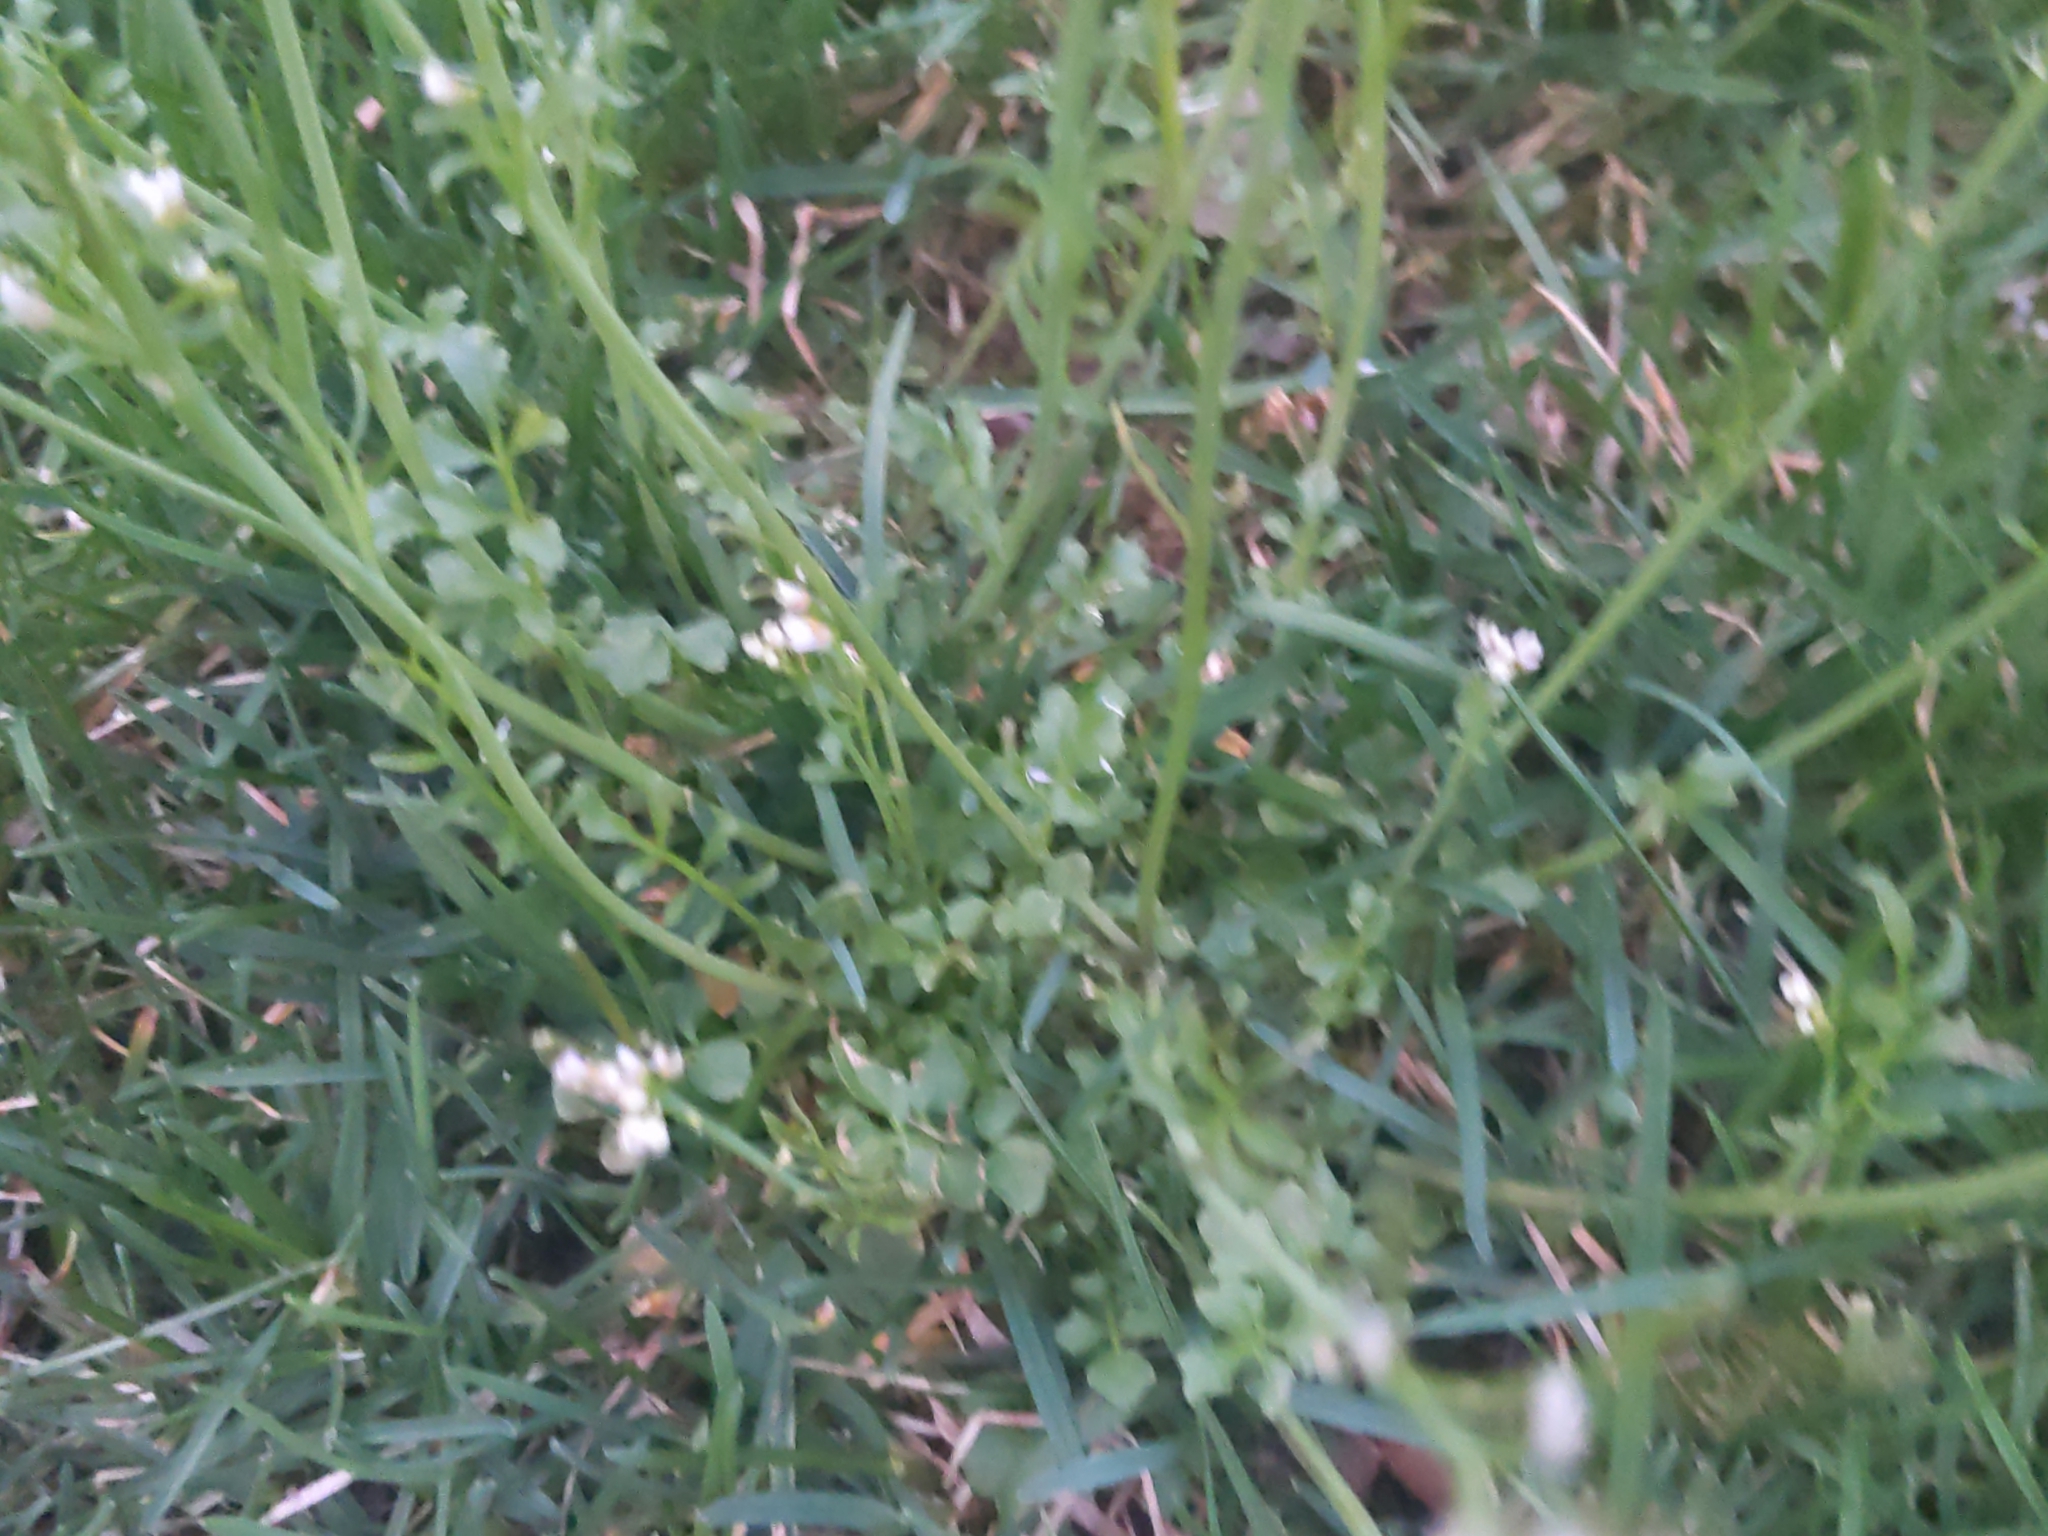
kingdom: Plantae
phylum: Tracheophyta
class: Magnoliopsida
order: Brassicales
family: Brassicaceae
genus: Cardamine
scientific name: Cardamine hirsuta
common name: Hairy bittercress
